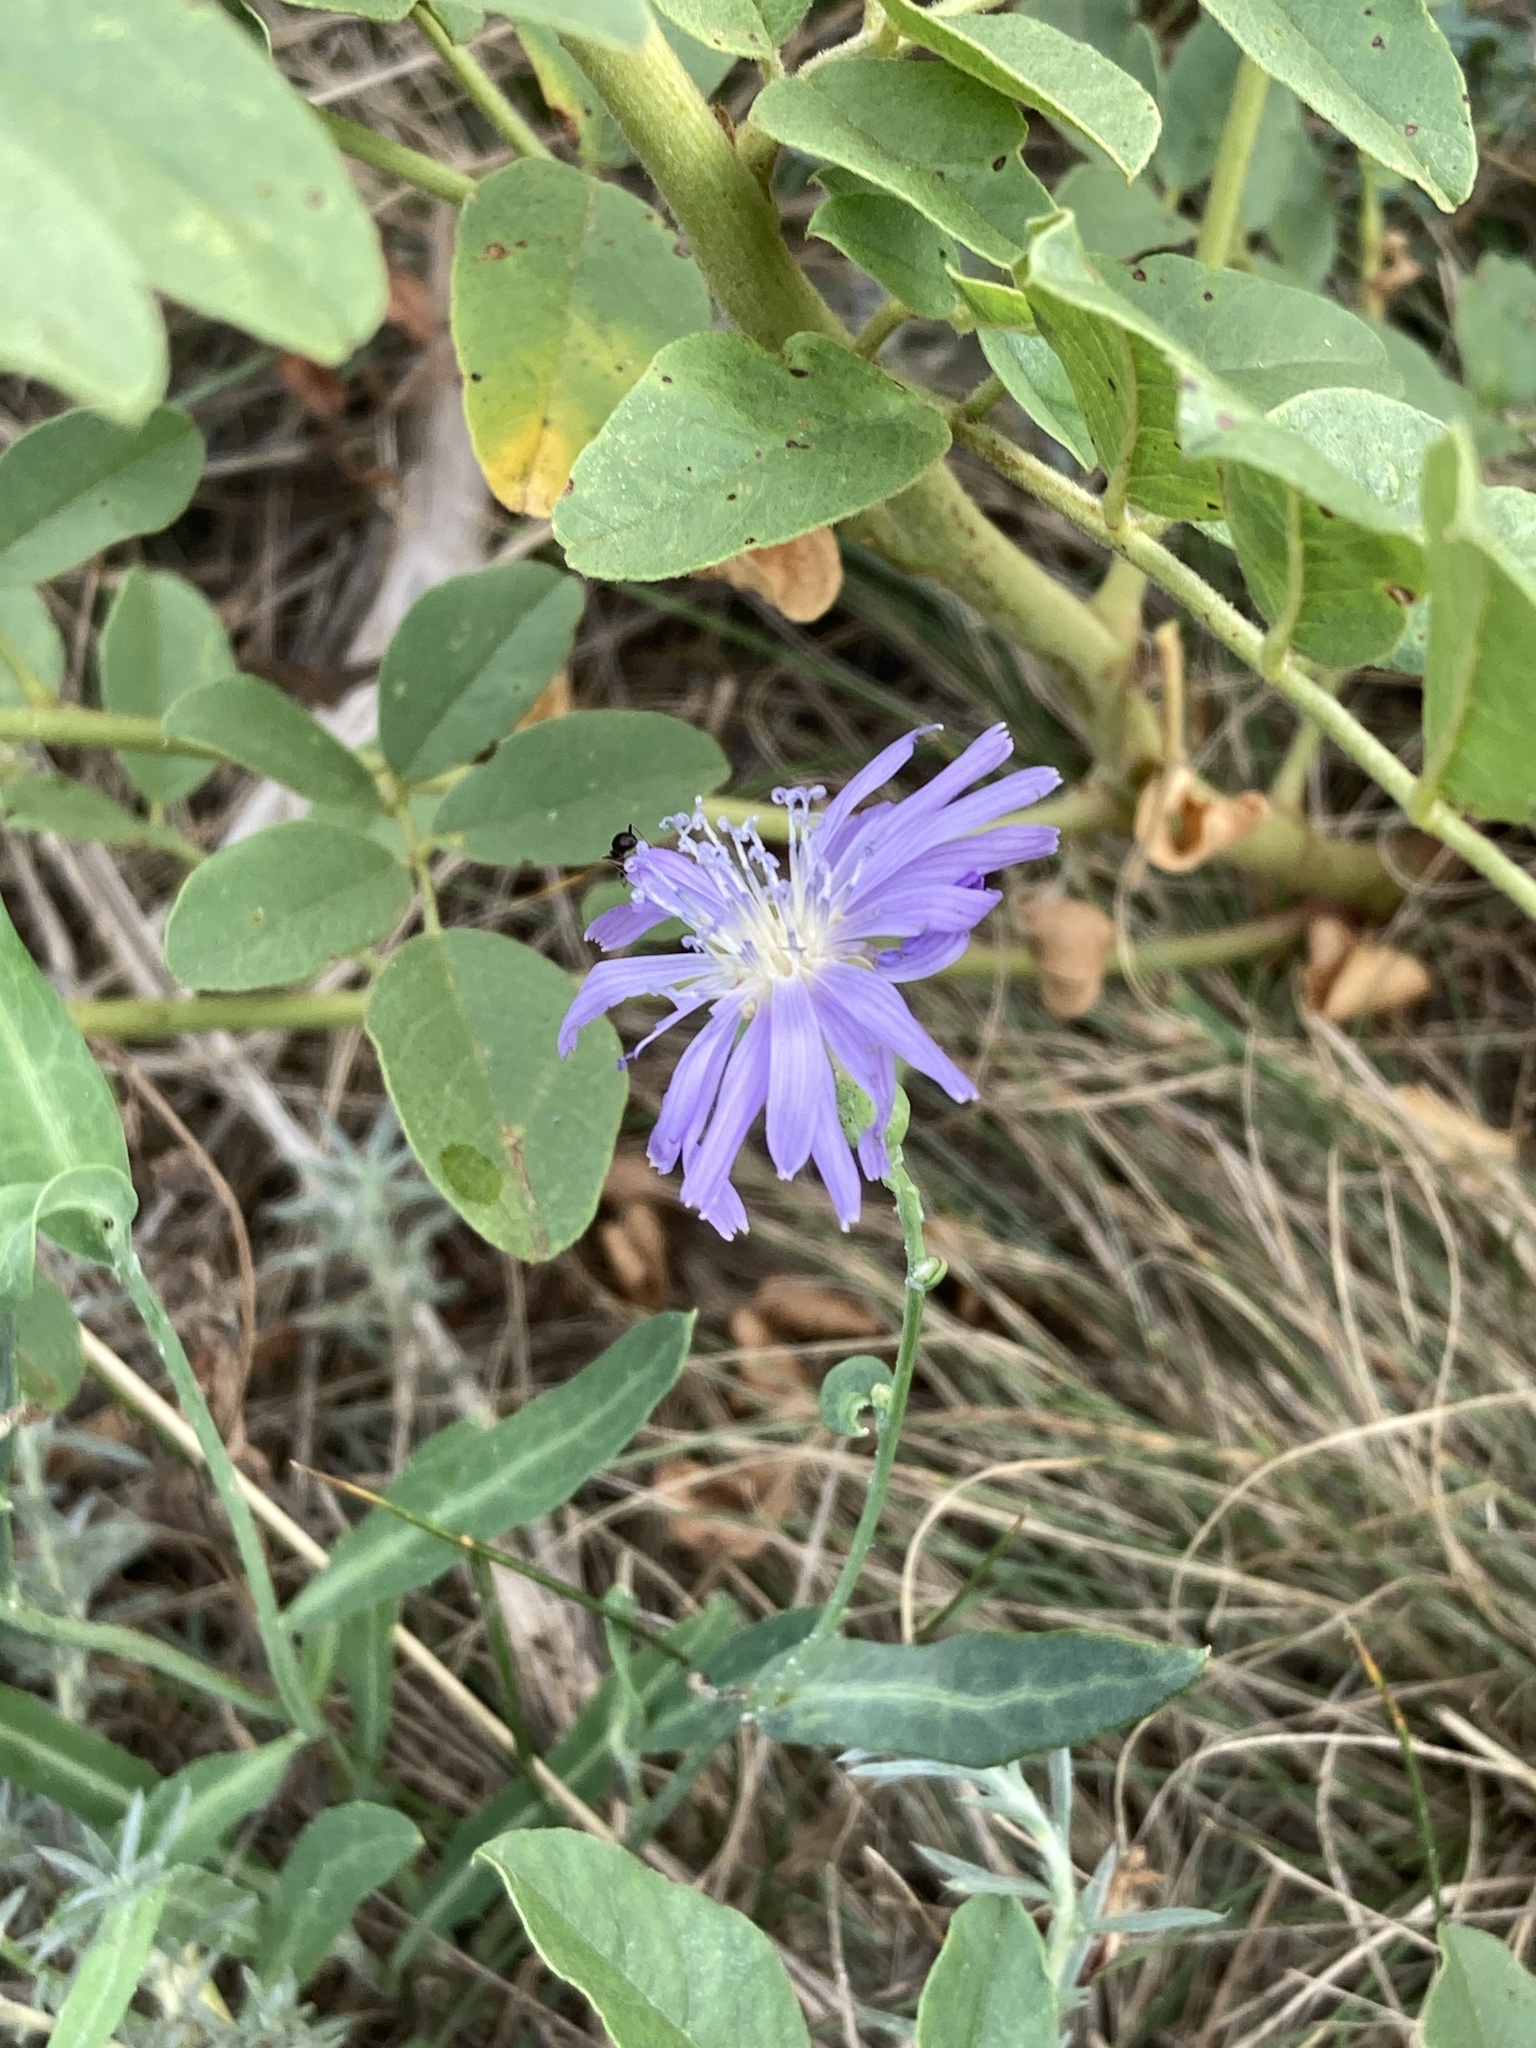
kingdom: Plantae
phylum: Tracheophyta
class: Magnoliopsida
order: Asterales
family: Asteraceae
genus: Lactuca
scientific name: Lactuca tatarica
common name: Blue lettuce
